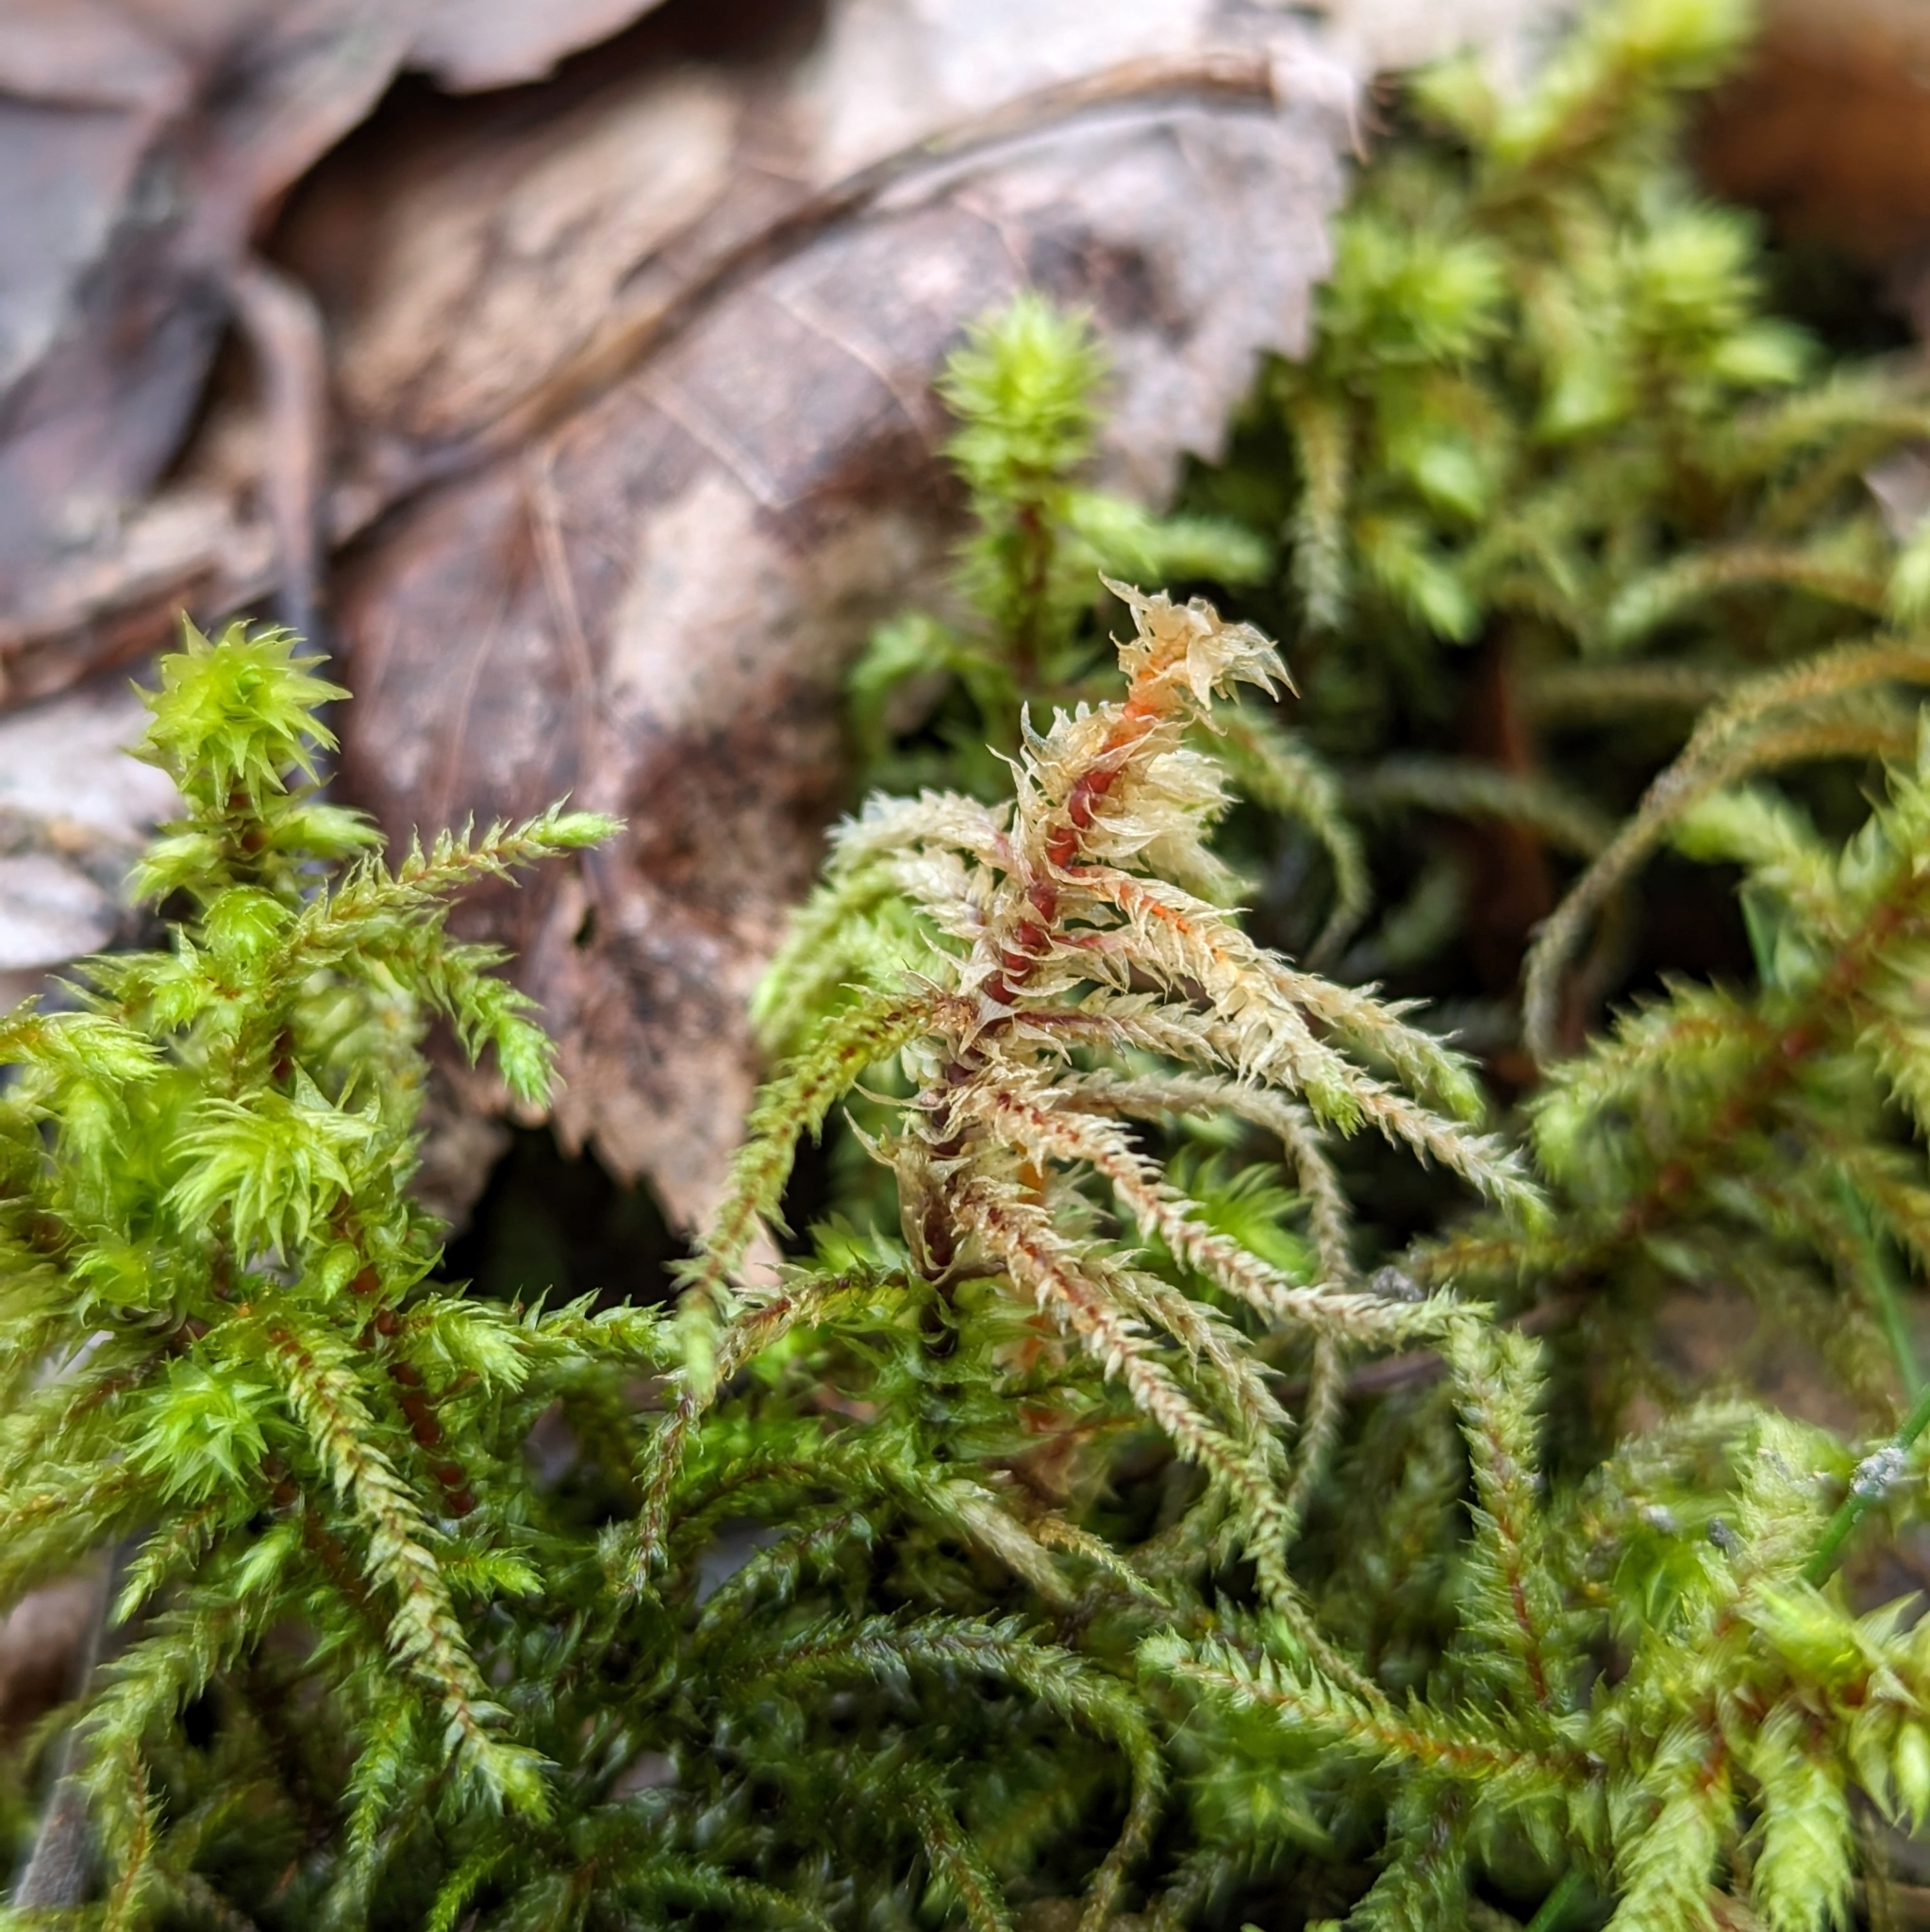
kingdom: Plantae
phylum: Bryophyta
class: Bryopsida
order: Hypnales
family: Hylocomiaceae
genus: Hylocomiadelphus
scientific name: Hylocomiadelphus triquetrus
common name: Rough goose neck moss
